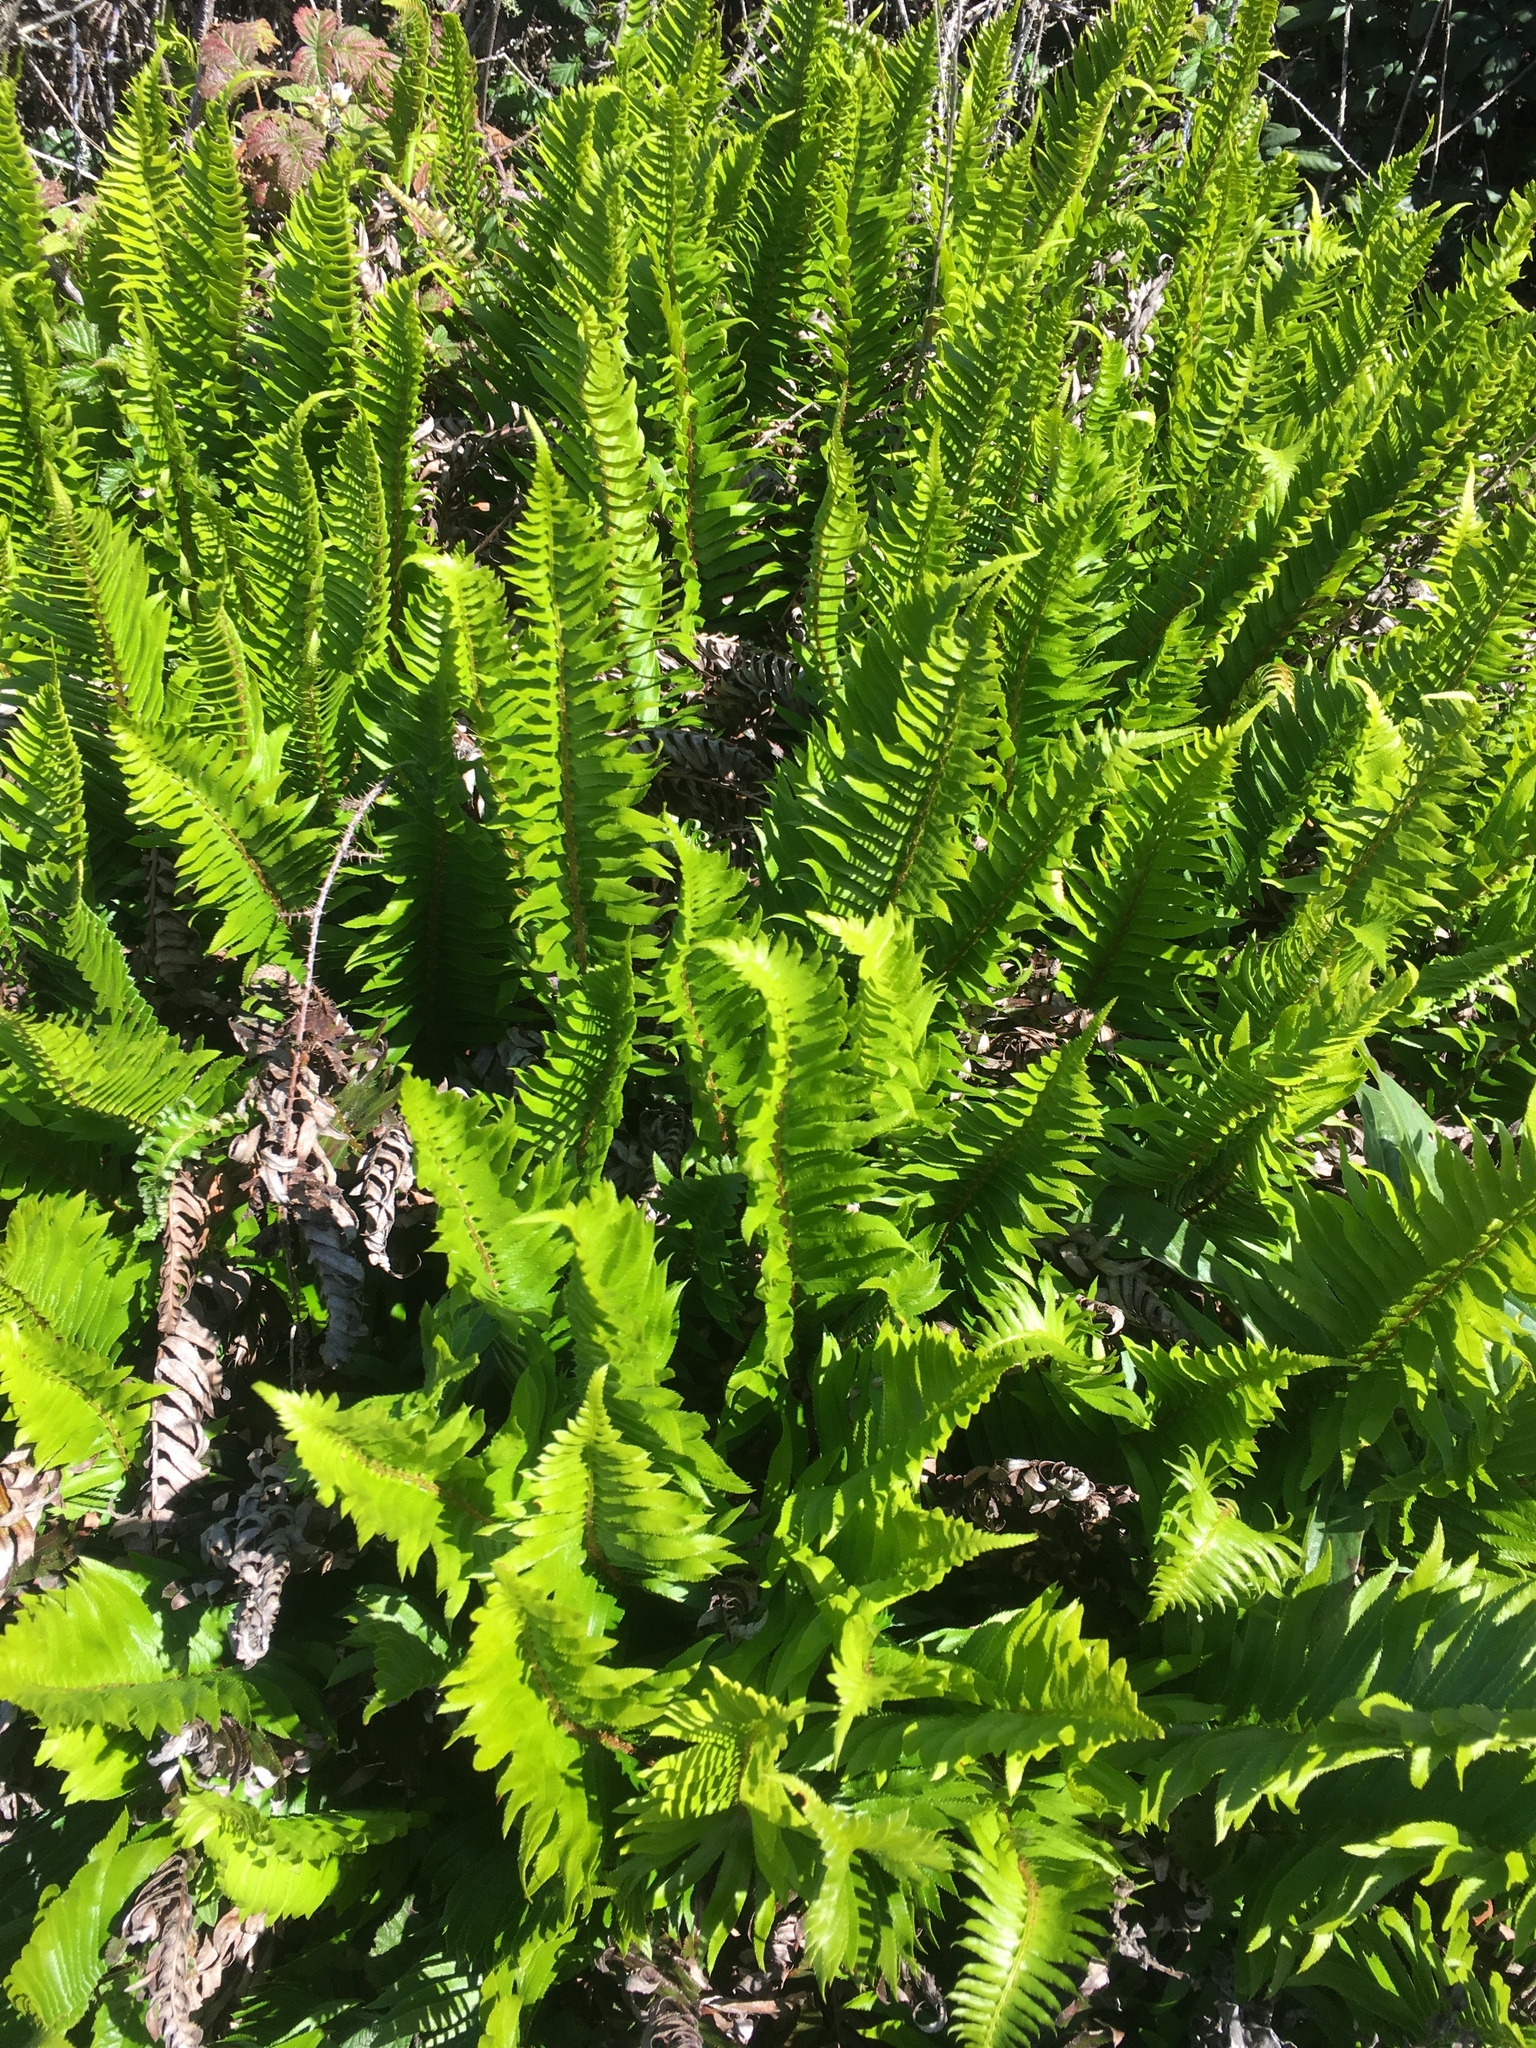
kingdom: Plantae
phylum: Tracheophyta
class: Polypodiopsida
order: Polypodiales
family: Dryopteridaceae
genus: Polystichum
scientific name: Polystichum munitum
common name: Western sword-fern
